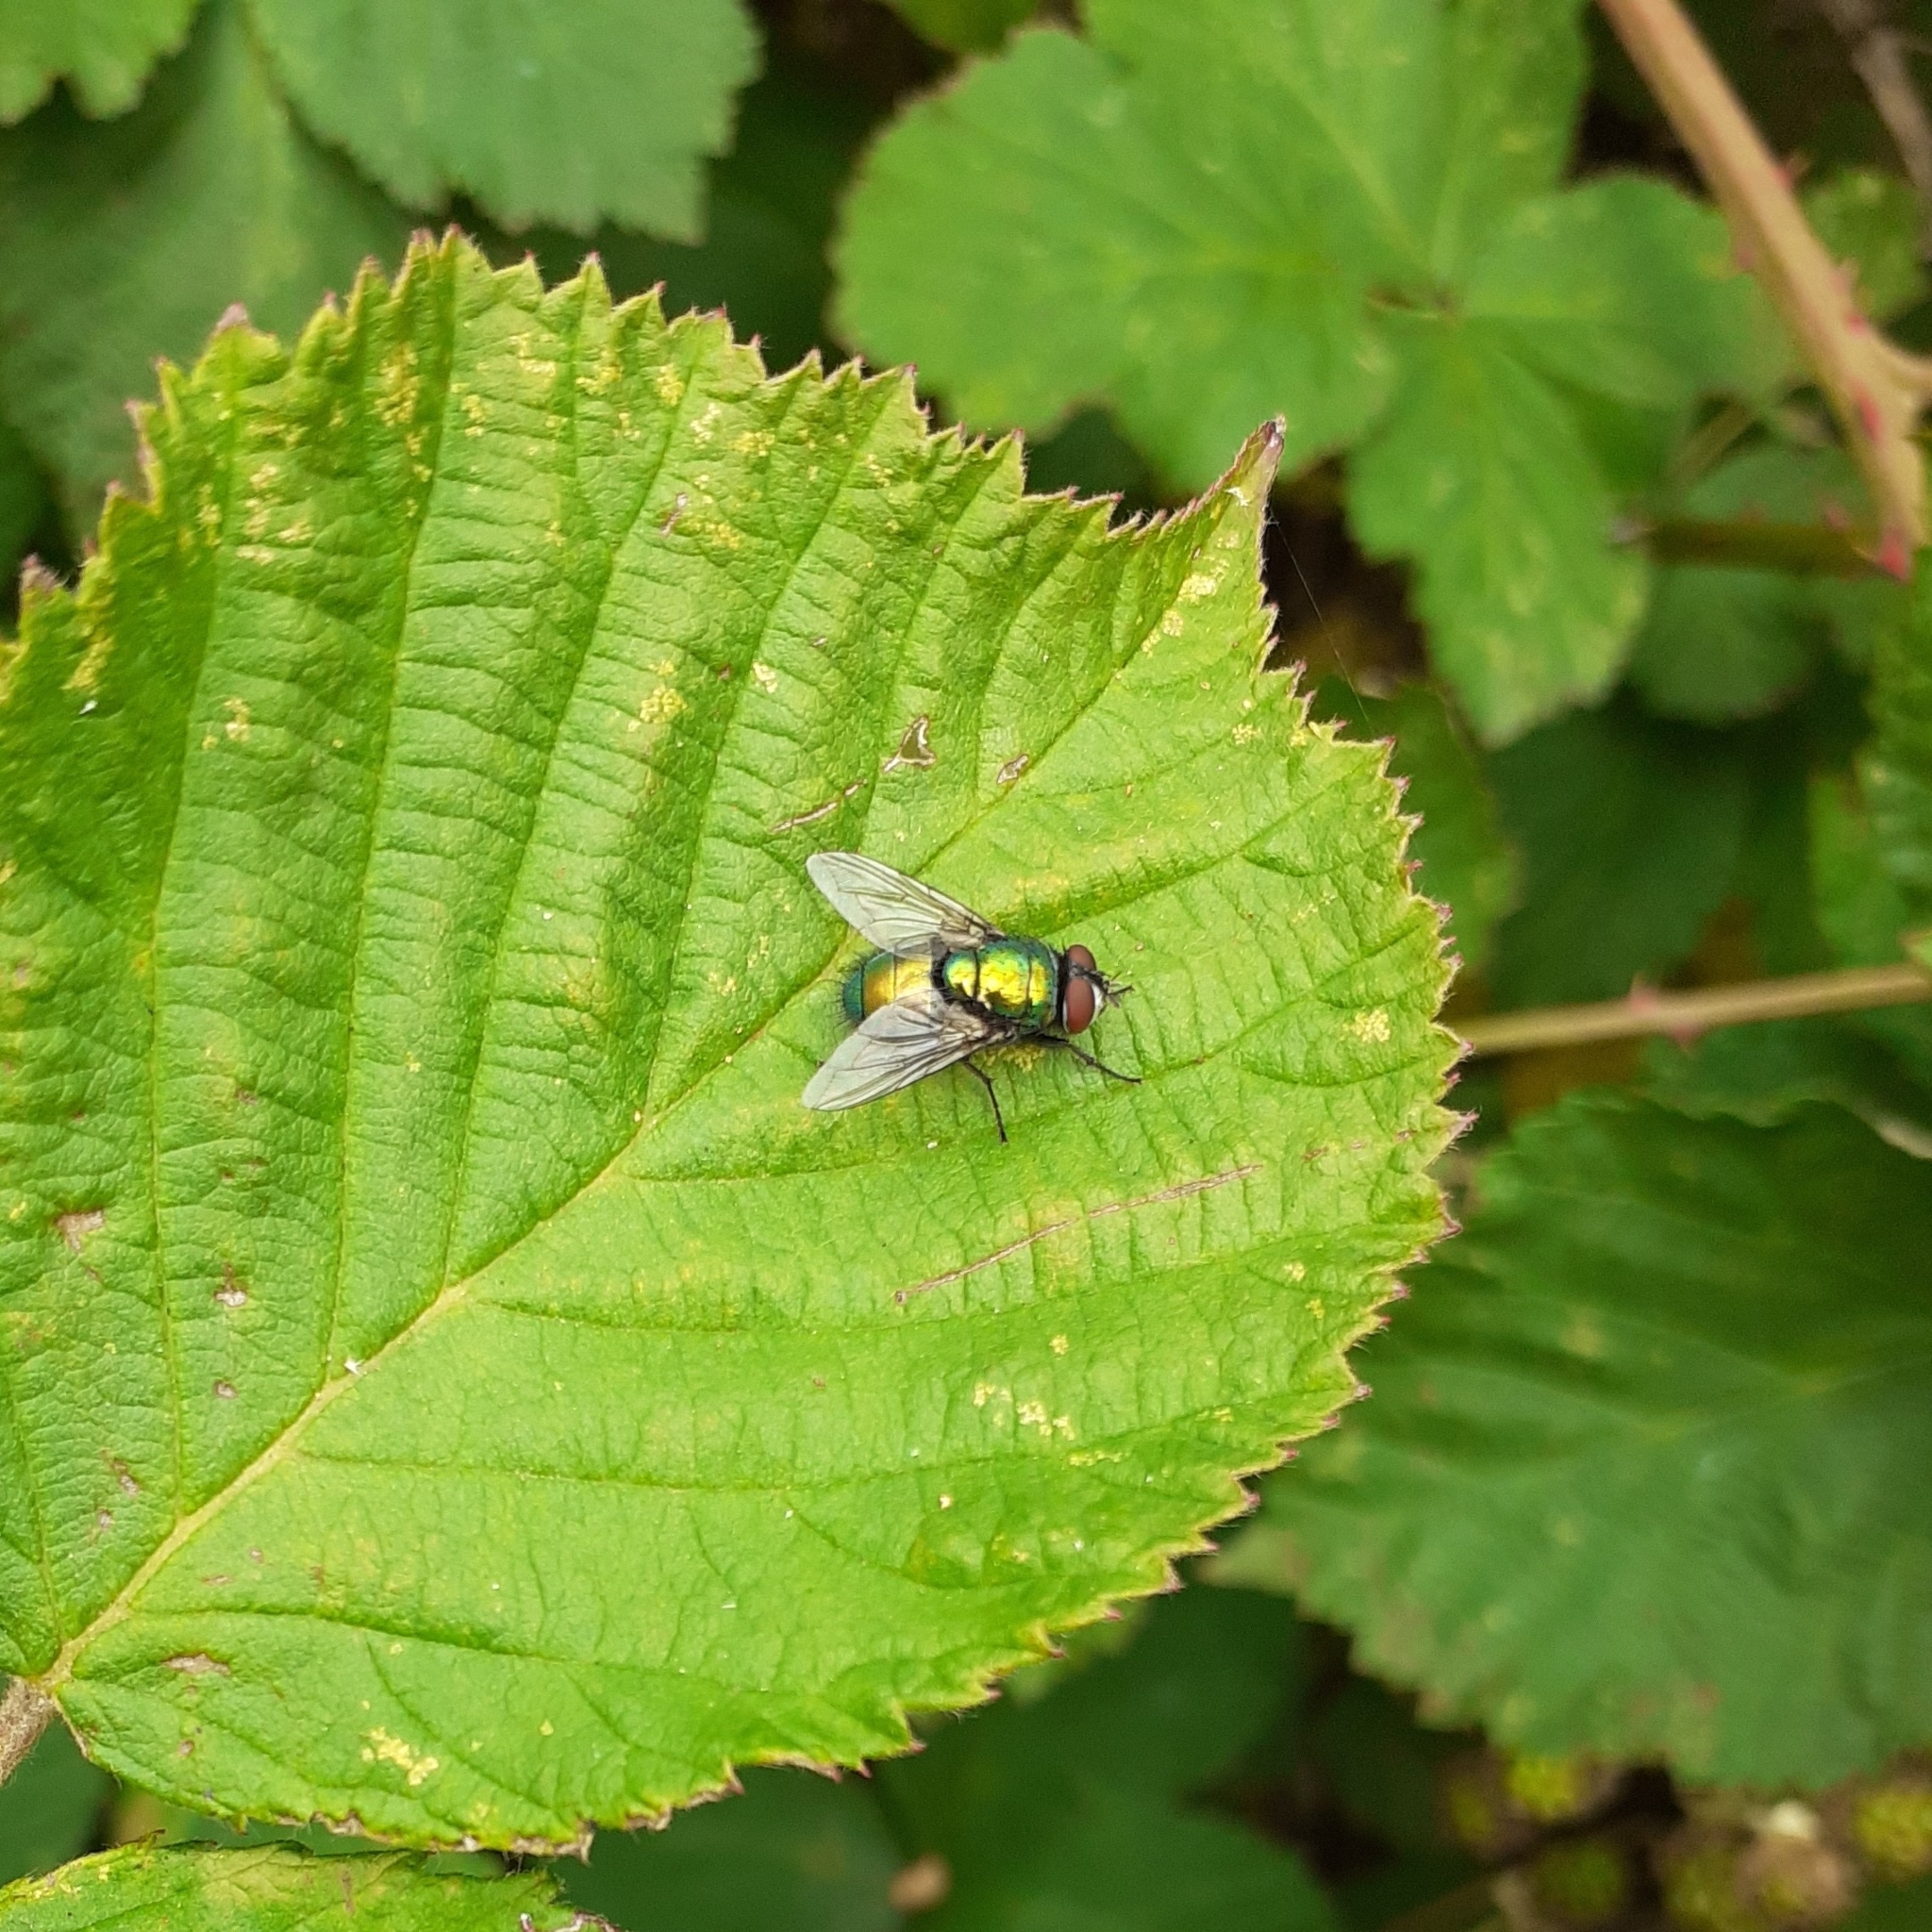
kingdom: Animalia
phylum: Arthropoda
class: Insecta
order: Diptera
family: Calliphoridae
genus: Lucilia
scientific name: Lucilia
